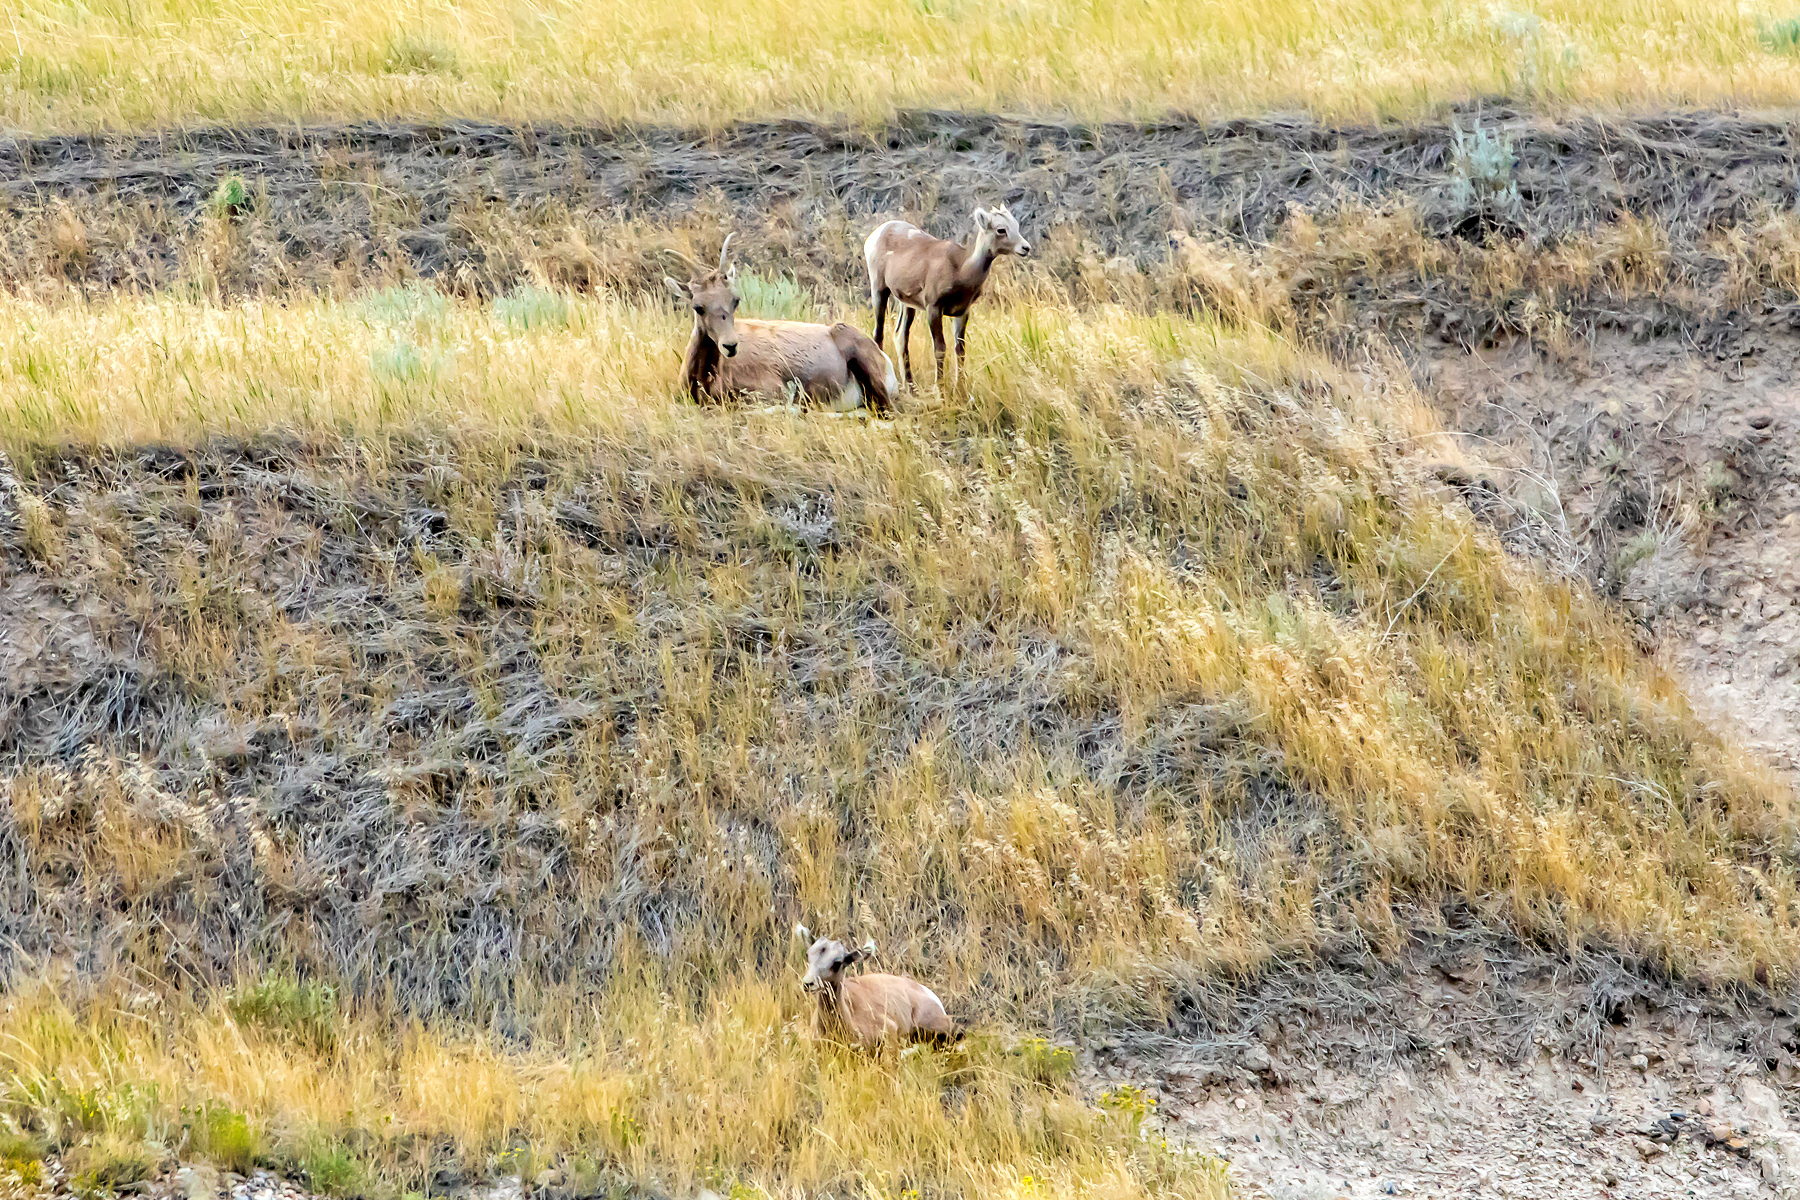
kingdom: Animalia
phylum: Chordata
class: Mammalia
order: Artiodactyla
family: Bovidae
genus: Ovis
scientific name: Ovis canadensis
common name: Bighorn sheep
